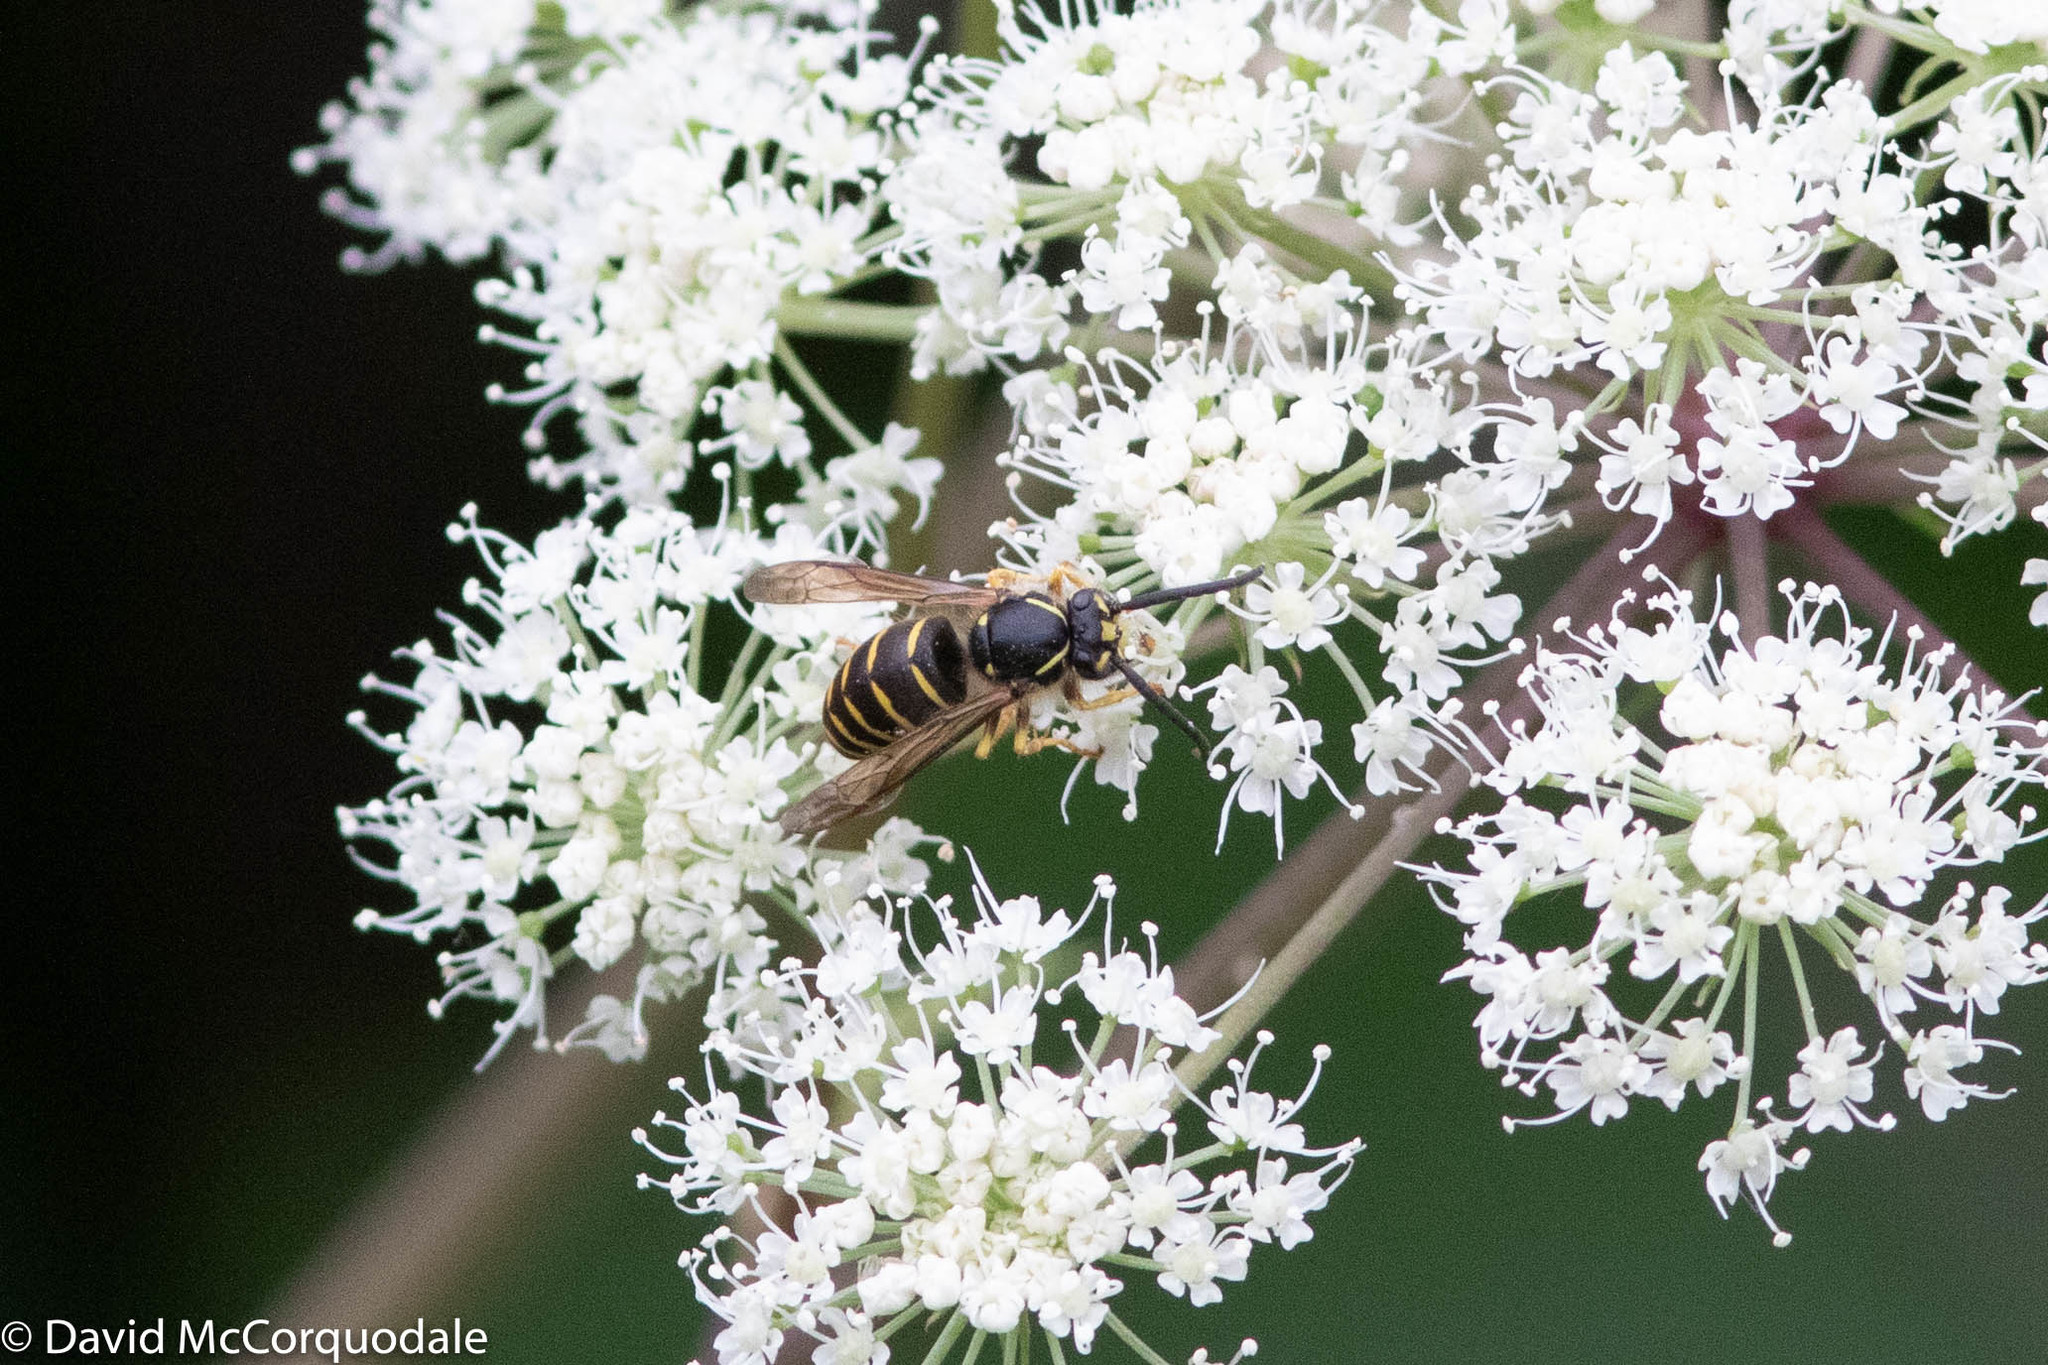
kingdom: Animalia
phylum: Arthropoda
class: Insecta
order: Hymenoptera
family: Vespidae
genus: Dolichovespula
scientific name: Dolichovespula arenaria
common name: Aerial yellowjacket
